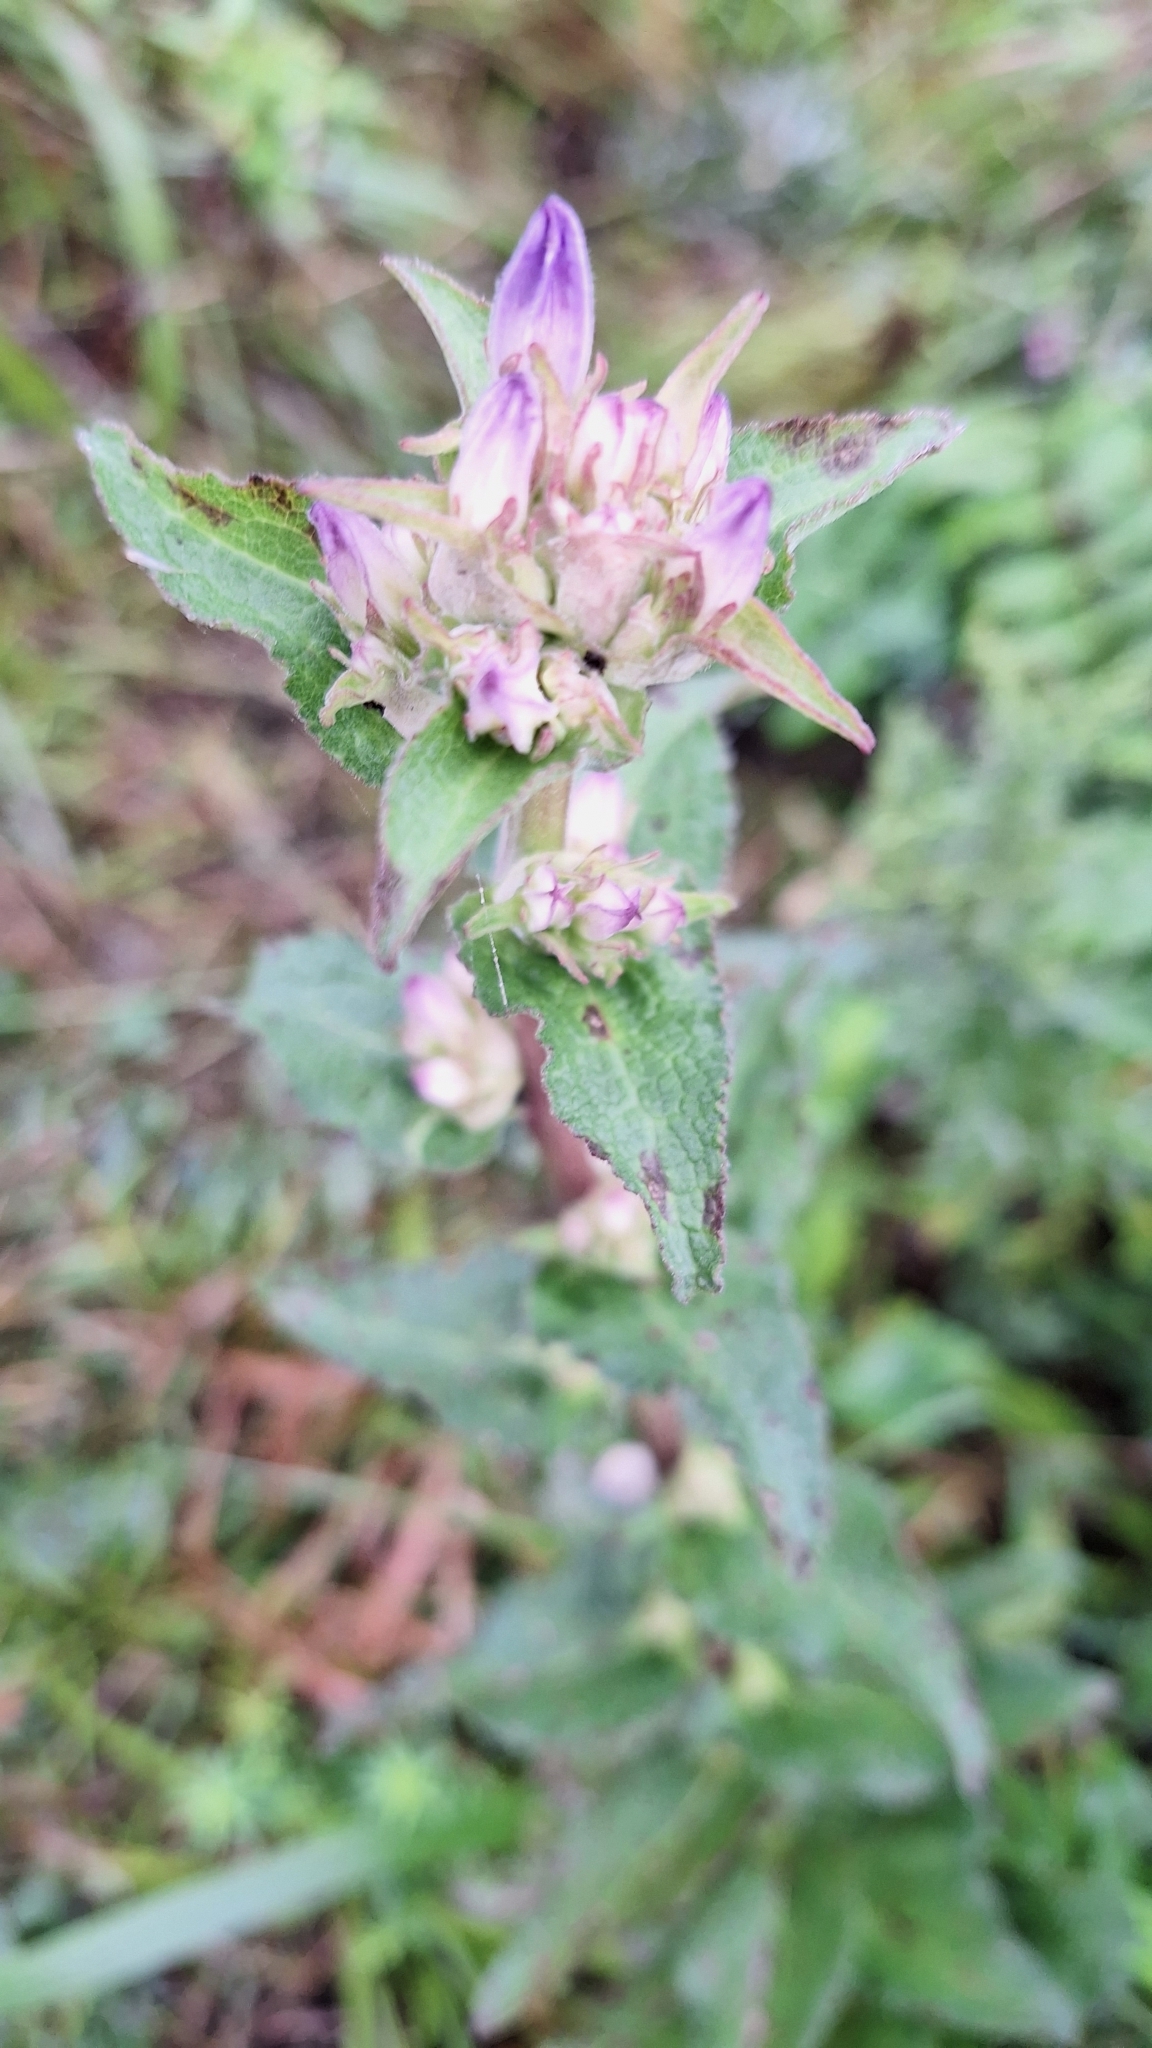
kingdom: Plantae
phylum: Tracheophyta
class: Magnoliopsida
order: Asterales
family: Campanulaceae
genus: Campanula
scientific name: Campanula glomerata
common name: Clustered bellflower
